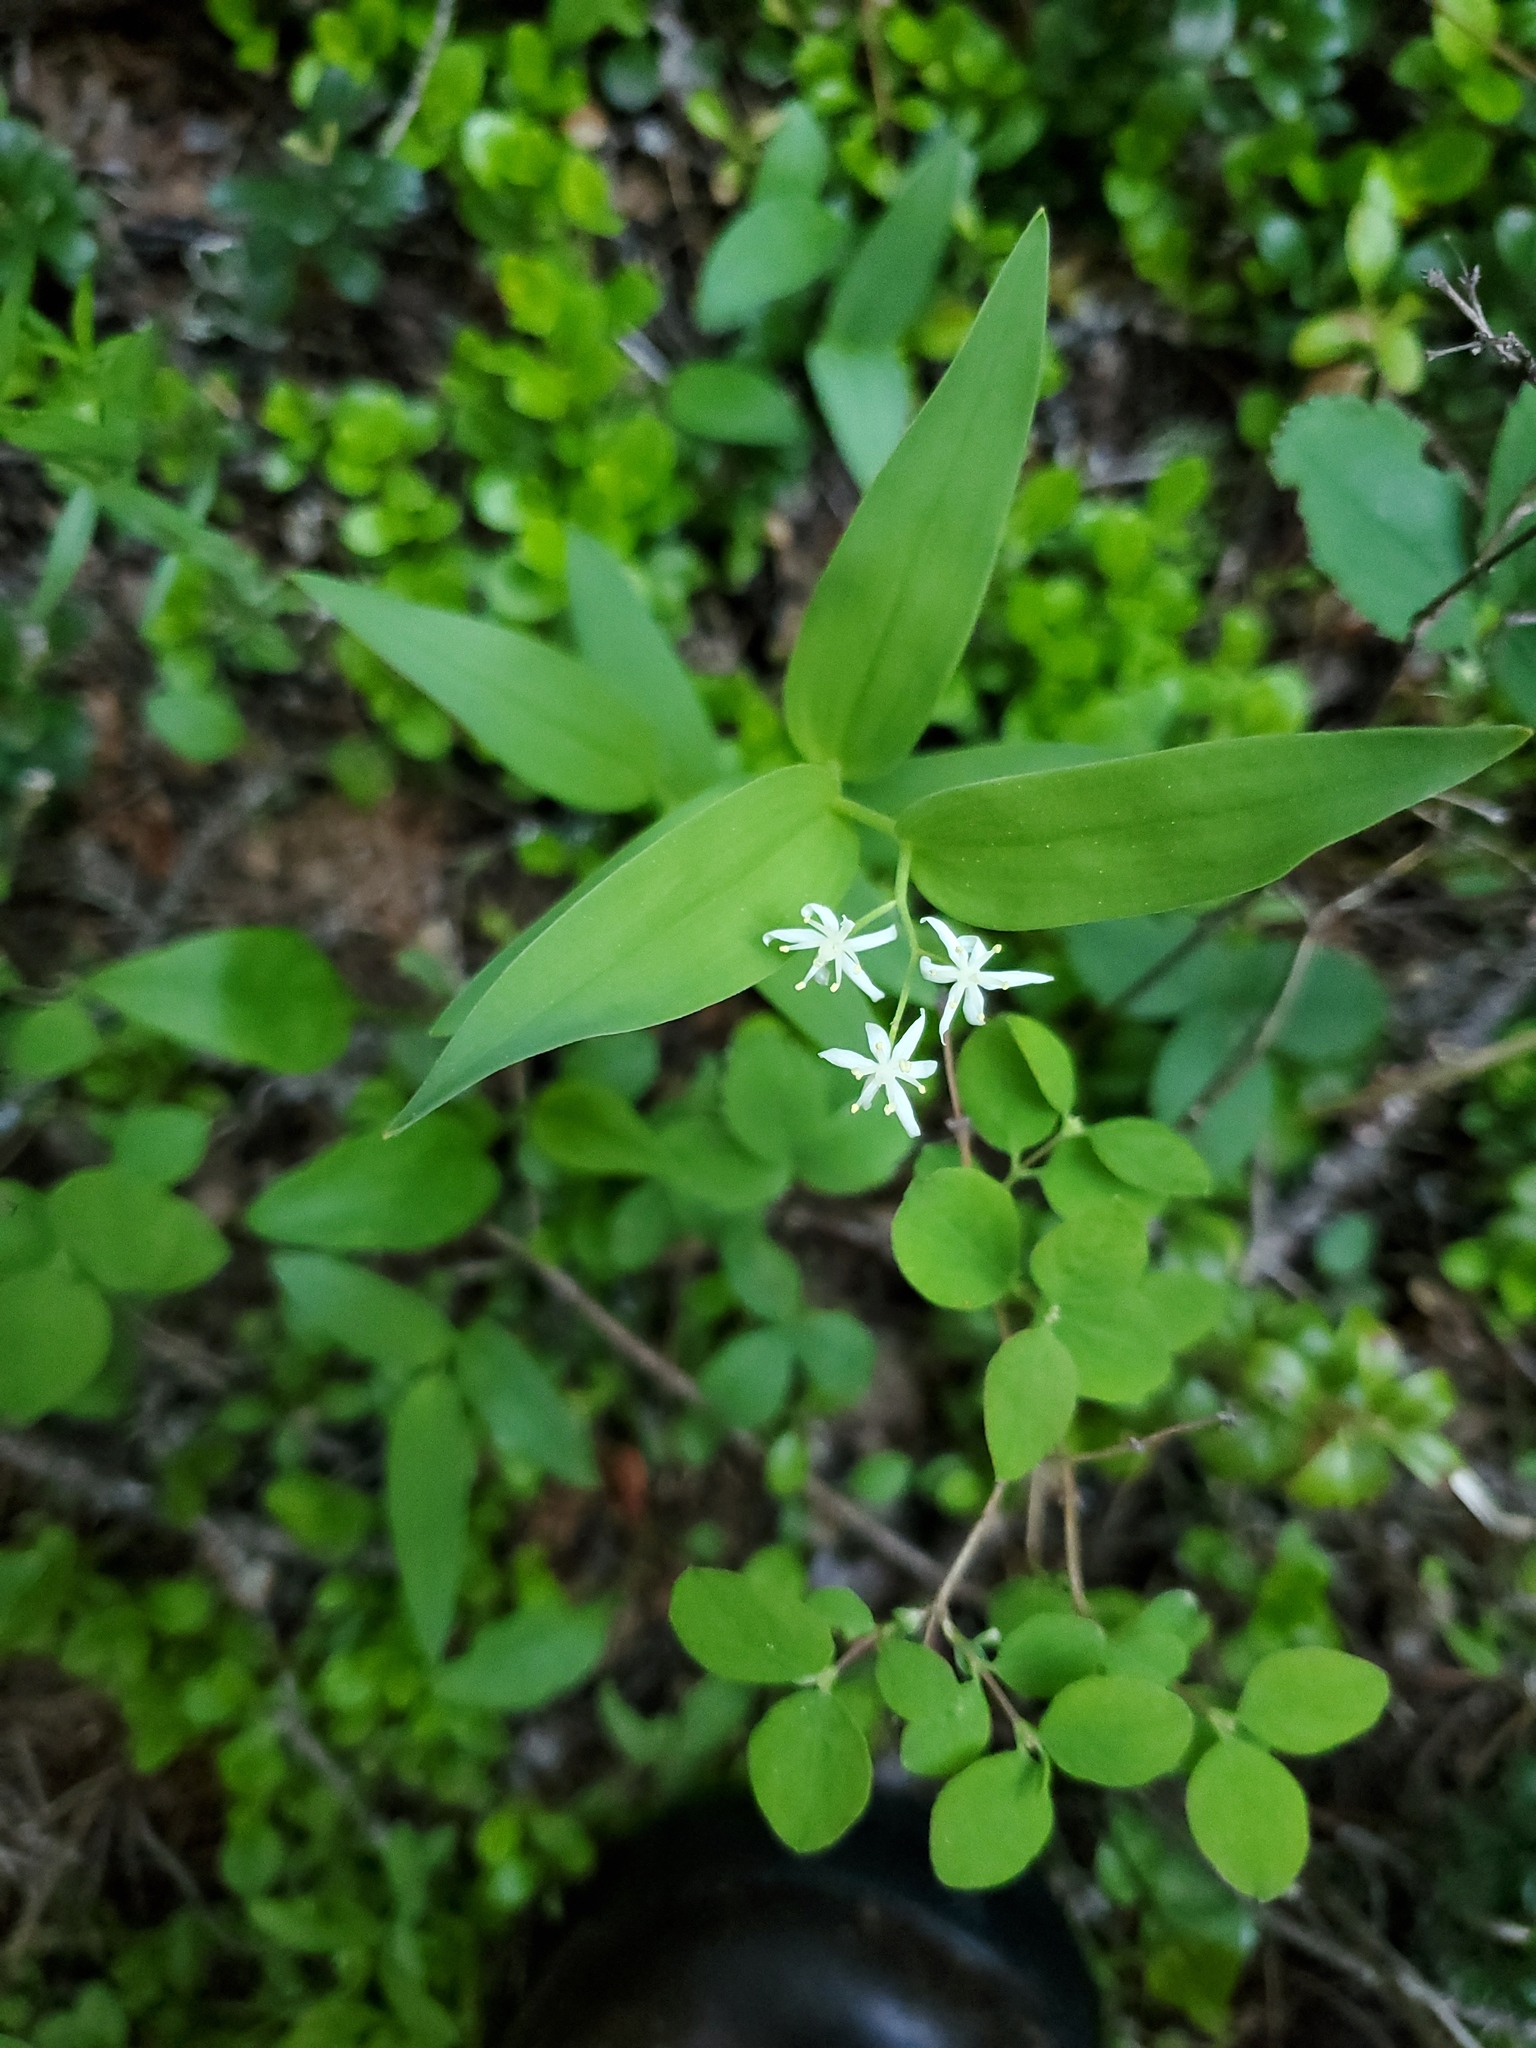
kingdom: Plantae
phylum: Tracheophyta
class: Liliopsida
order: Asparagales
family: Asparagaceae
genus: Maianthemum
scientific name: Maianthemum stellatum
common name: Little false solomon's seal
